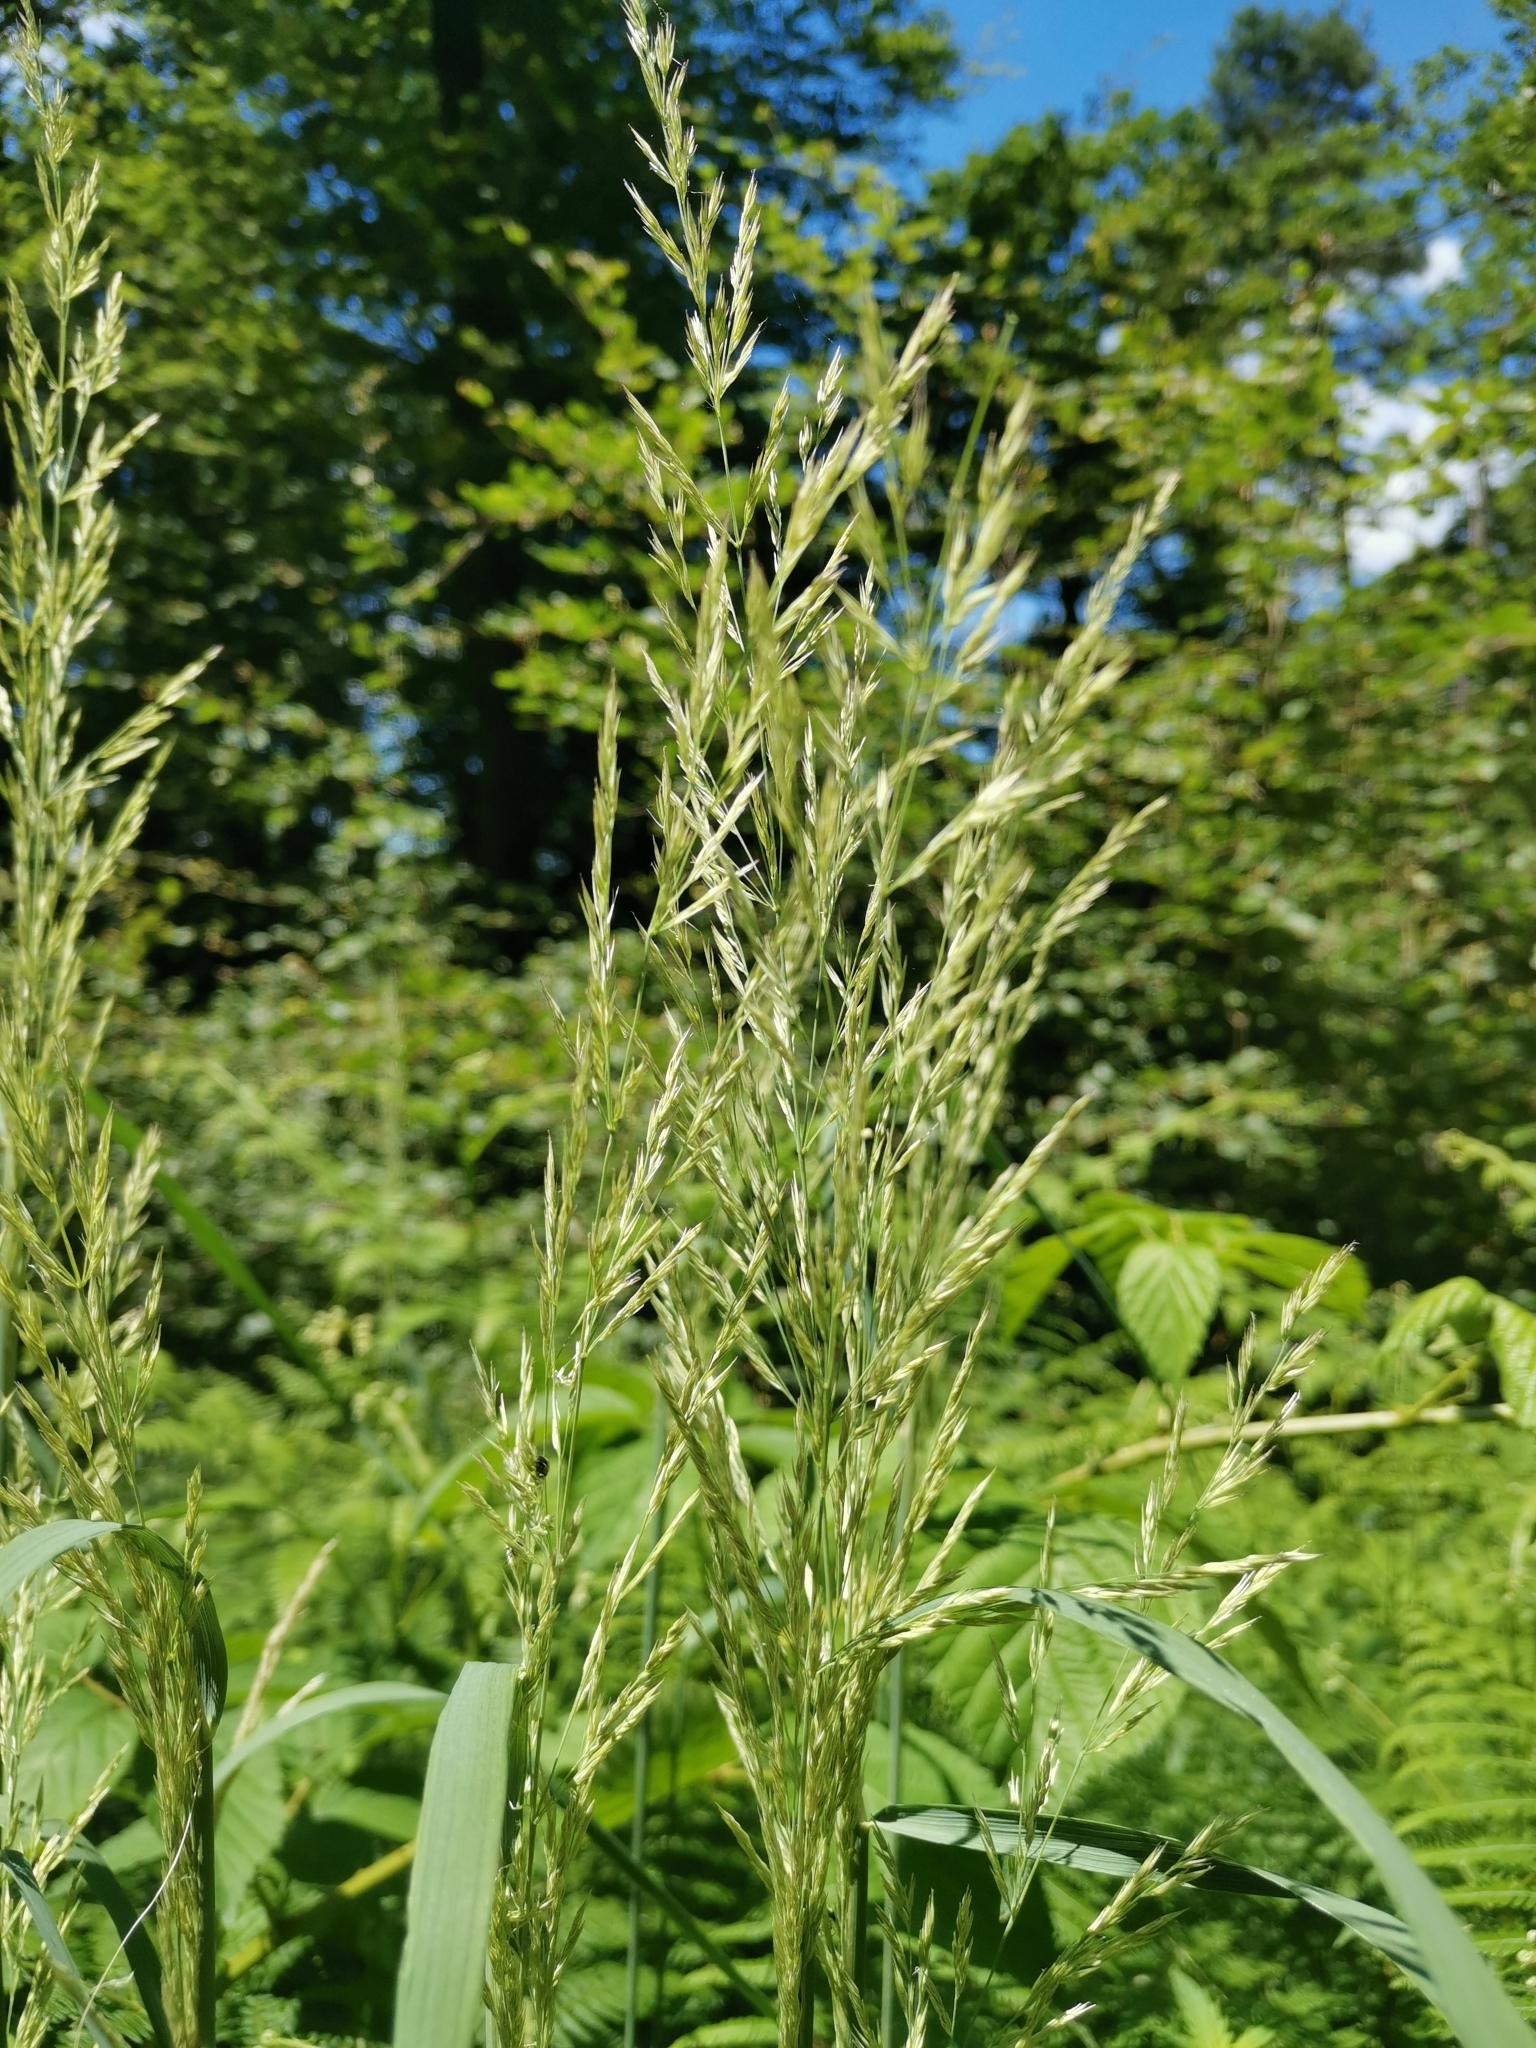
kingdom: Plantae
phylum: Tracheophyta
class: Liliopsida
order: Poales
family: Poaceae
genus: Calamagrostis
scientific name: Calamagrostis epigejos
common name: Wood small-reed
